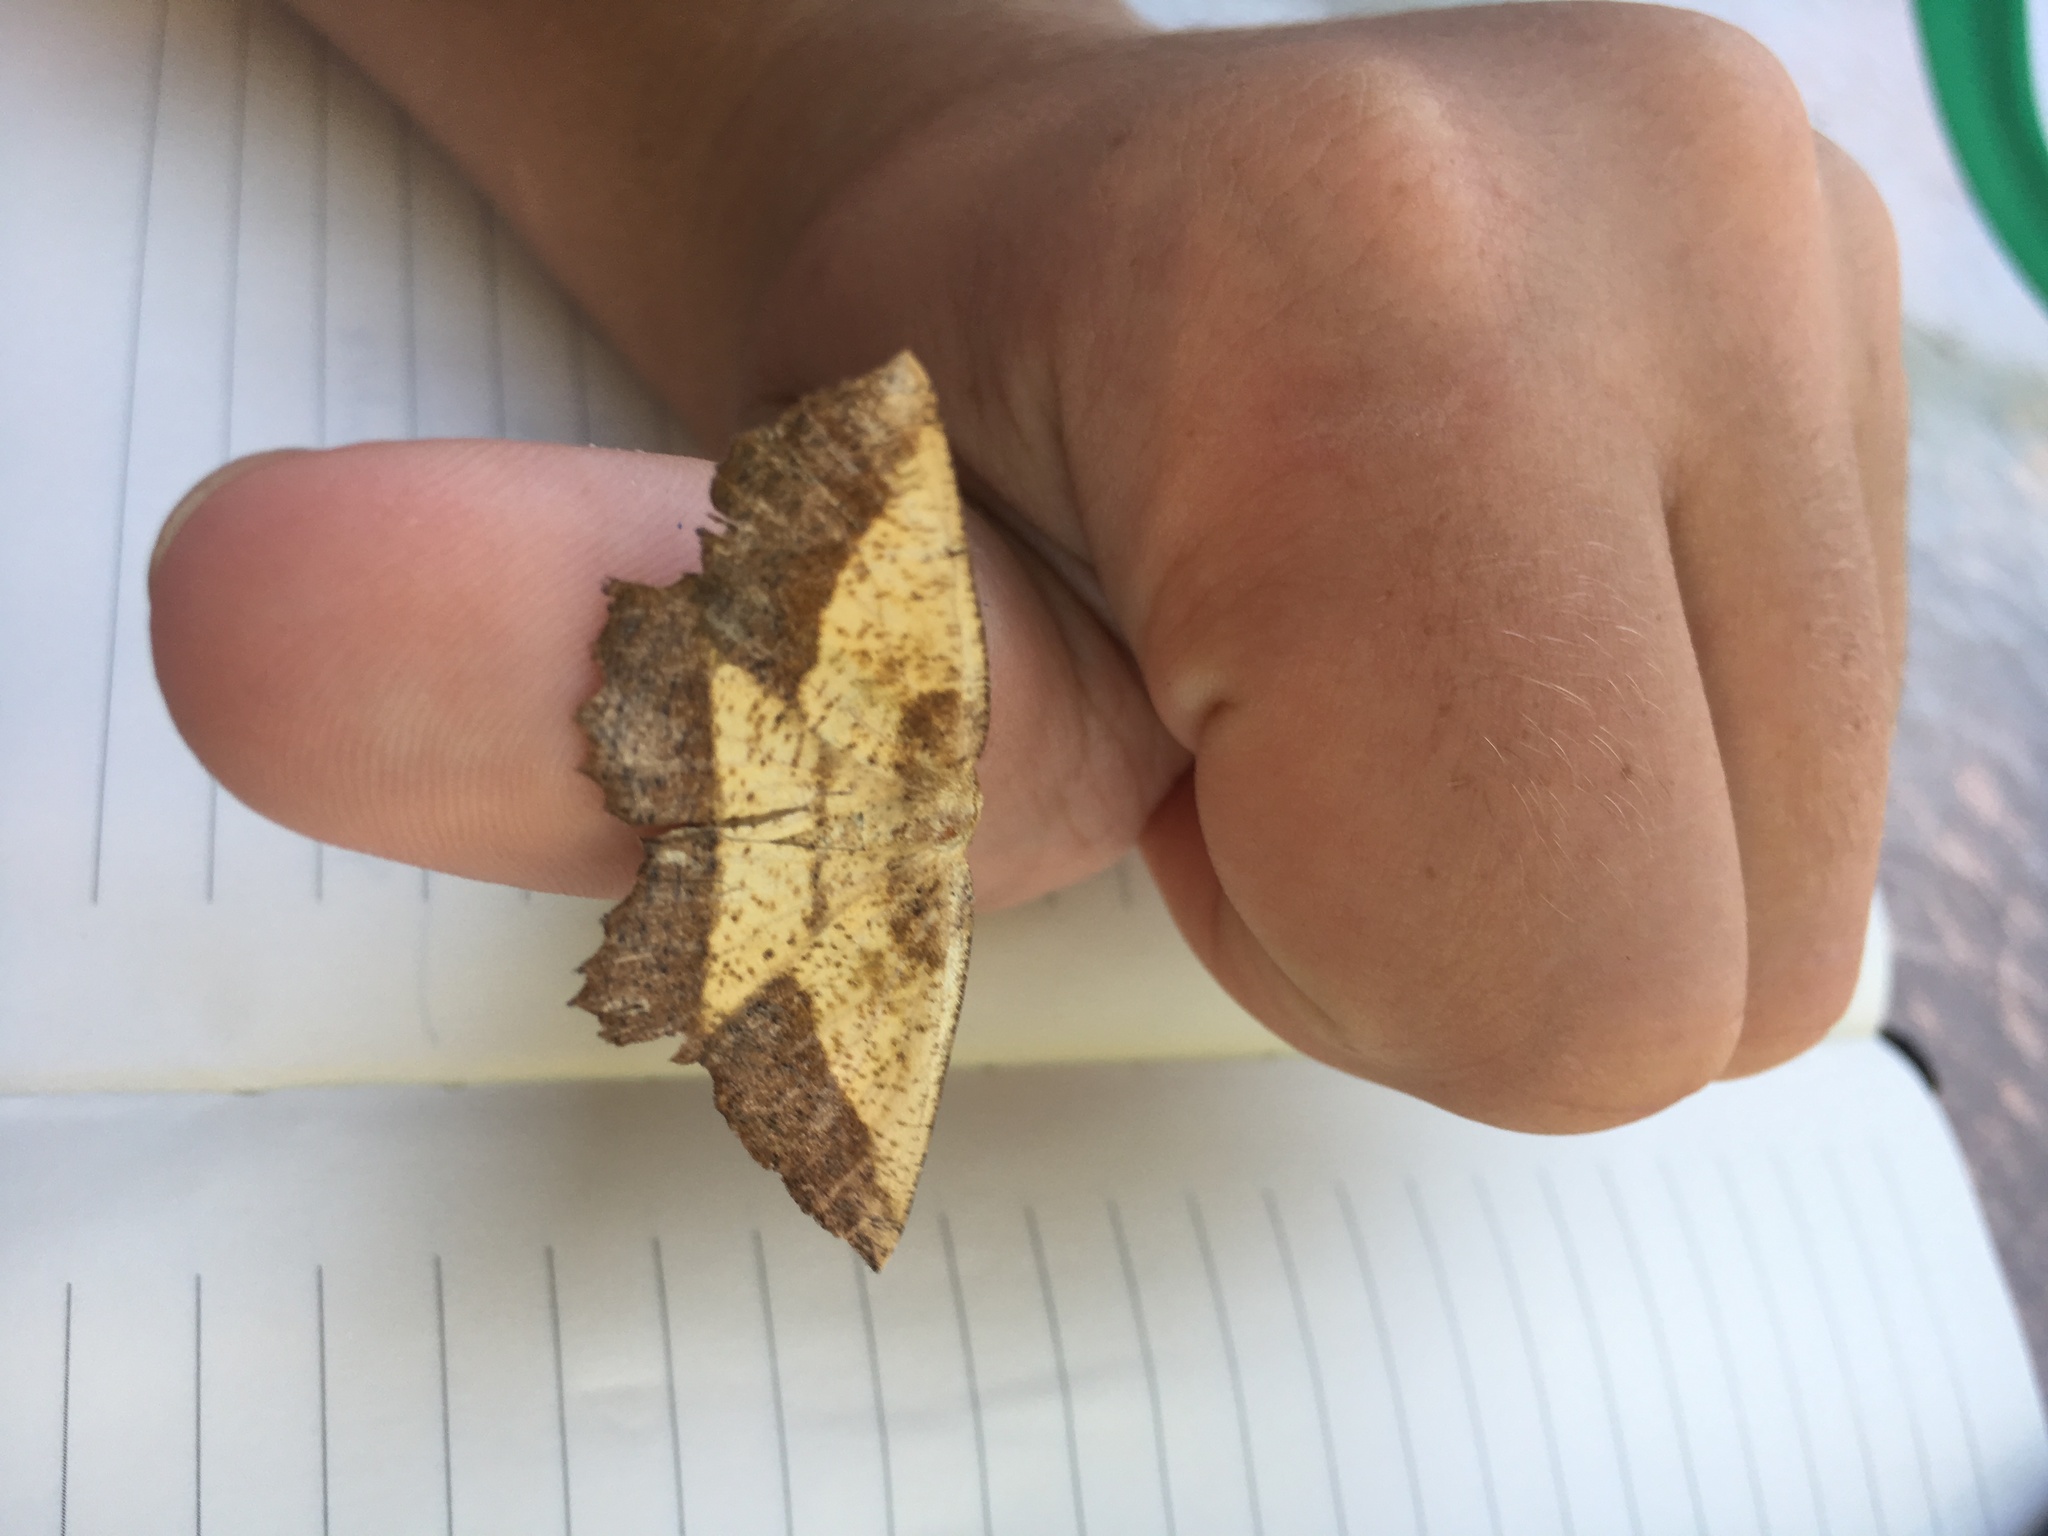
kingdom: Animalia
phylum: Arthropoda
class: Insecta
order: Lepidoptera
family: Geometridae
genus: Euchlaena
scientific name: Euchlaena serrata
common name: Saw wing
